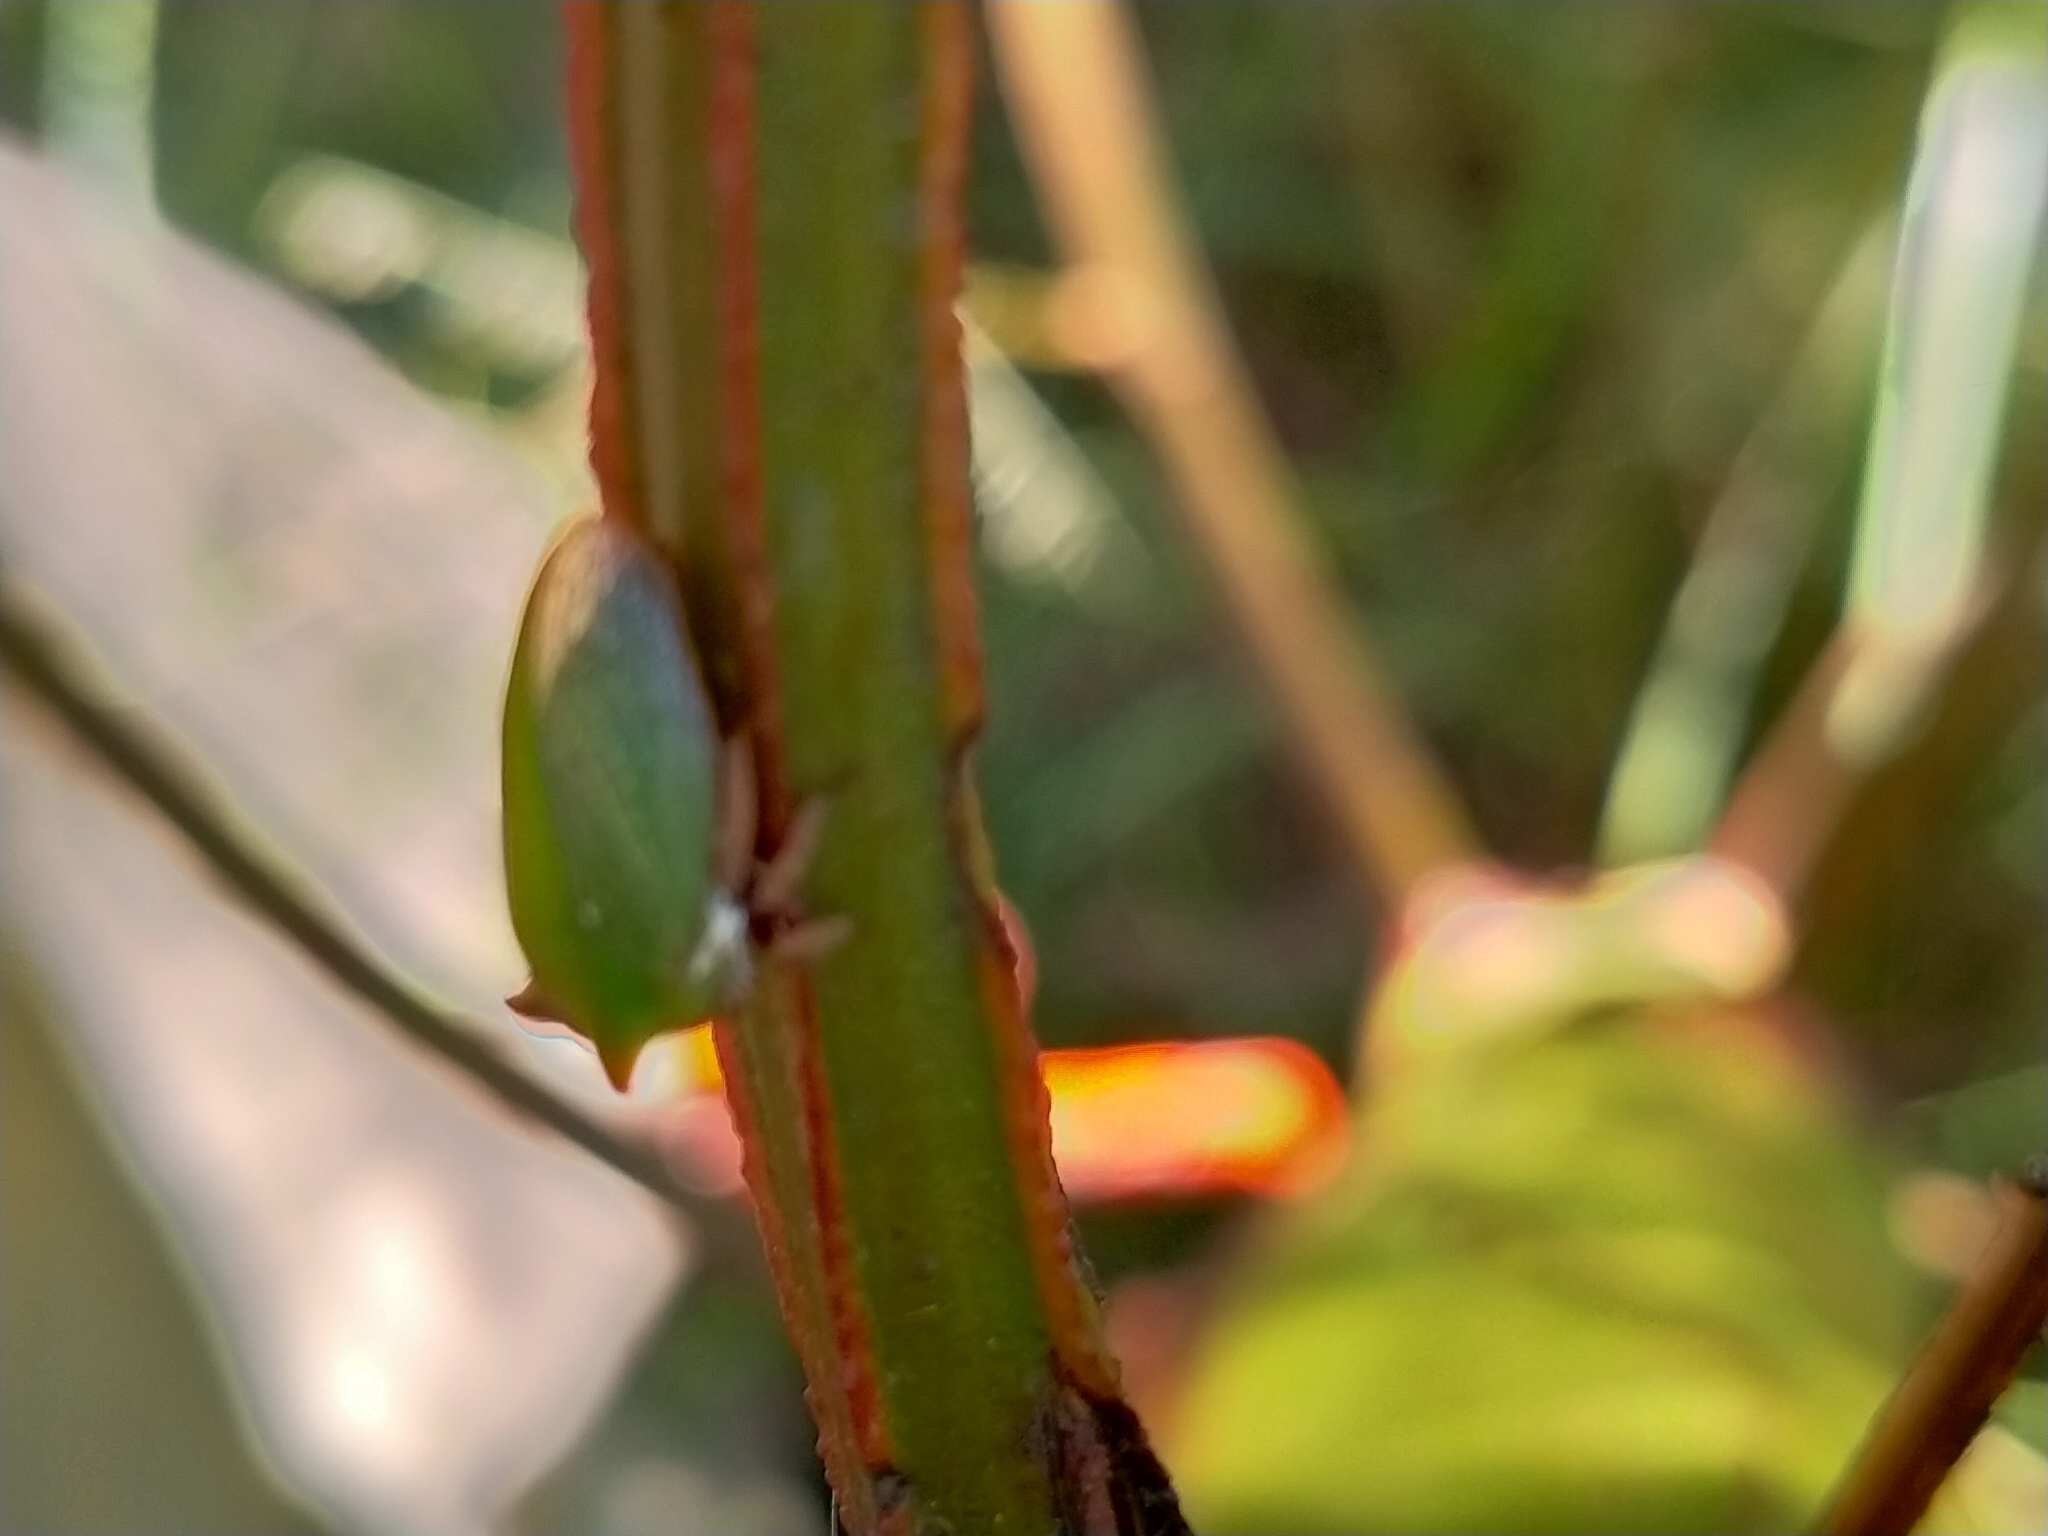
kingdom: Animalia
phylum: Arthropoda
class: Insecta
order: Hemiptera
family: Membracidae
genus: Sextius
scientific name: Sextius virescens
